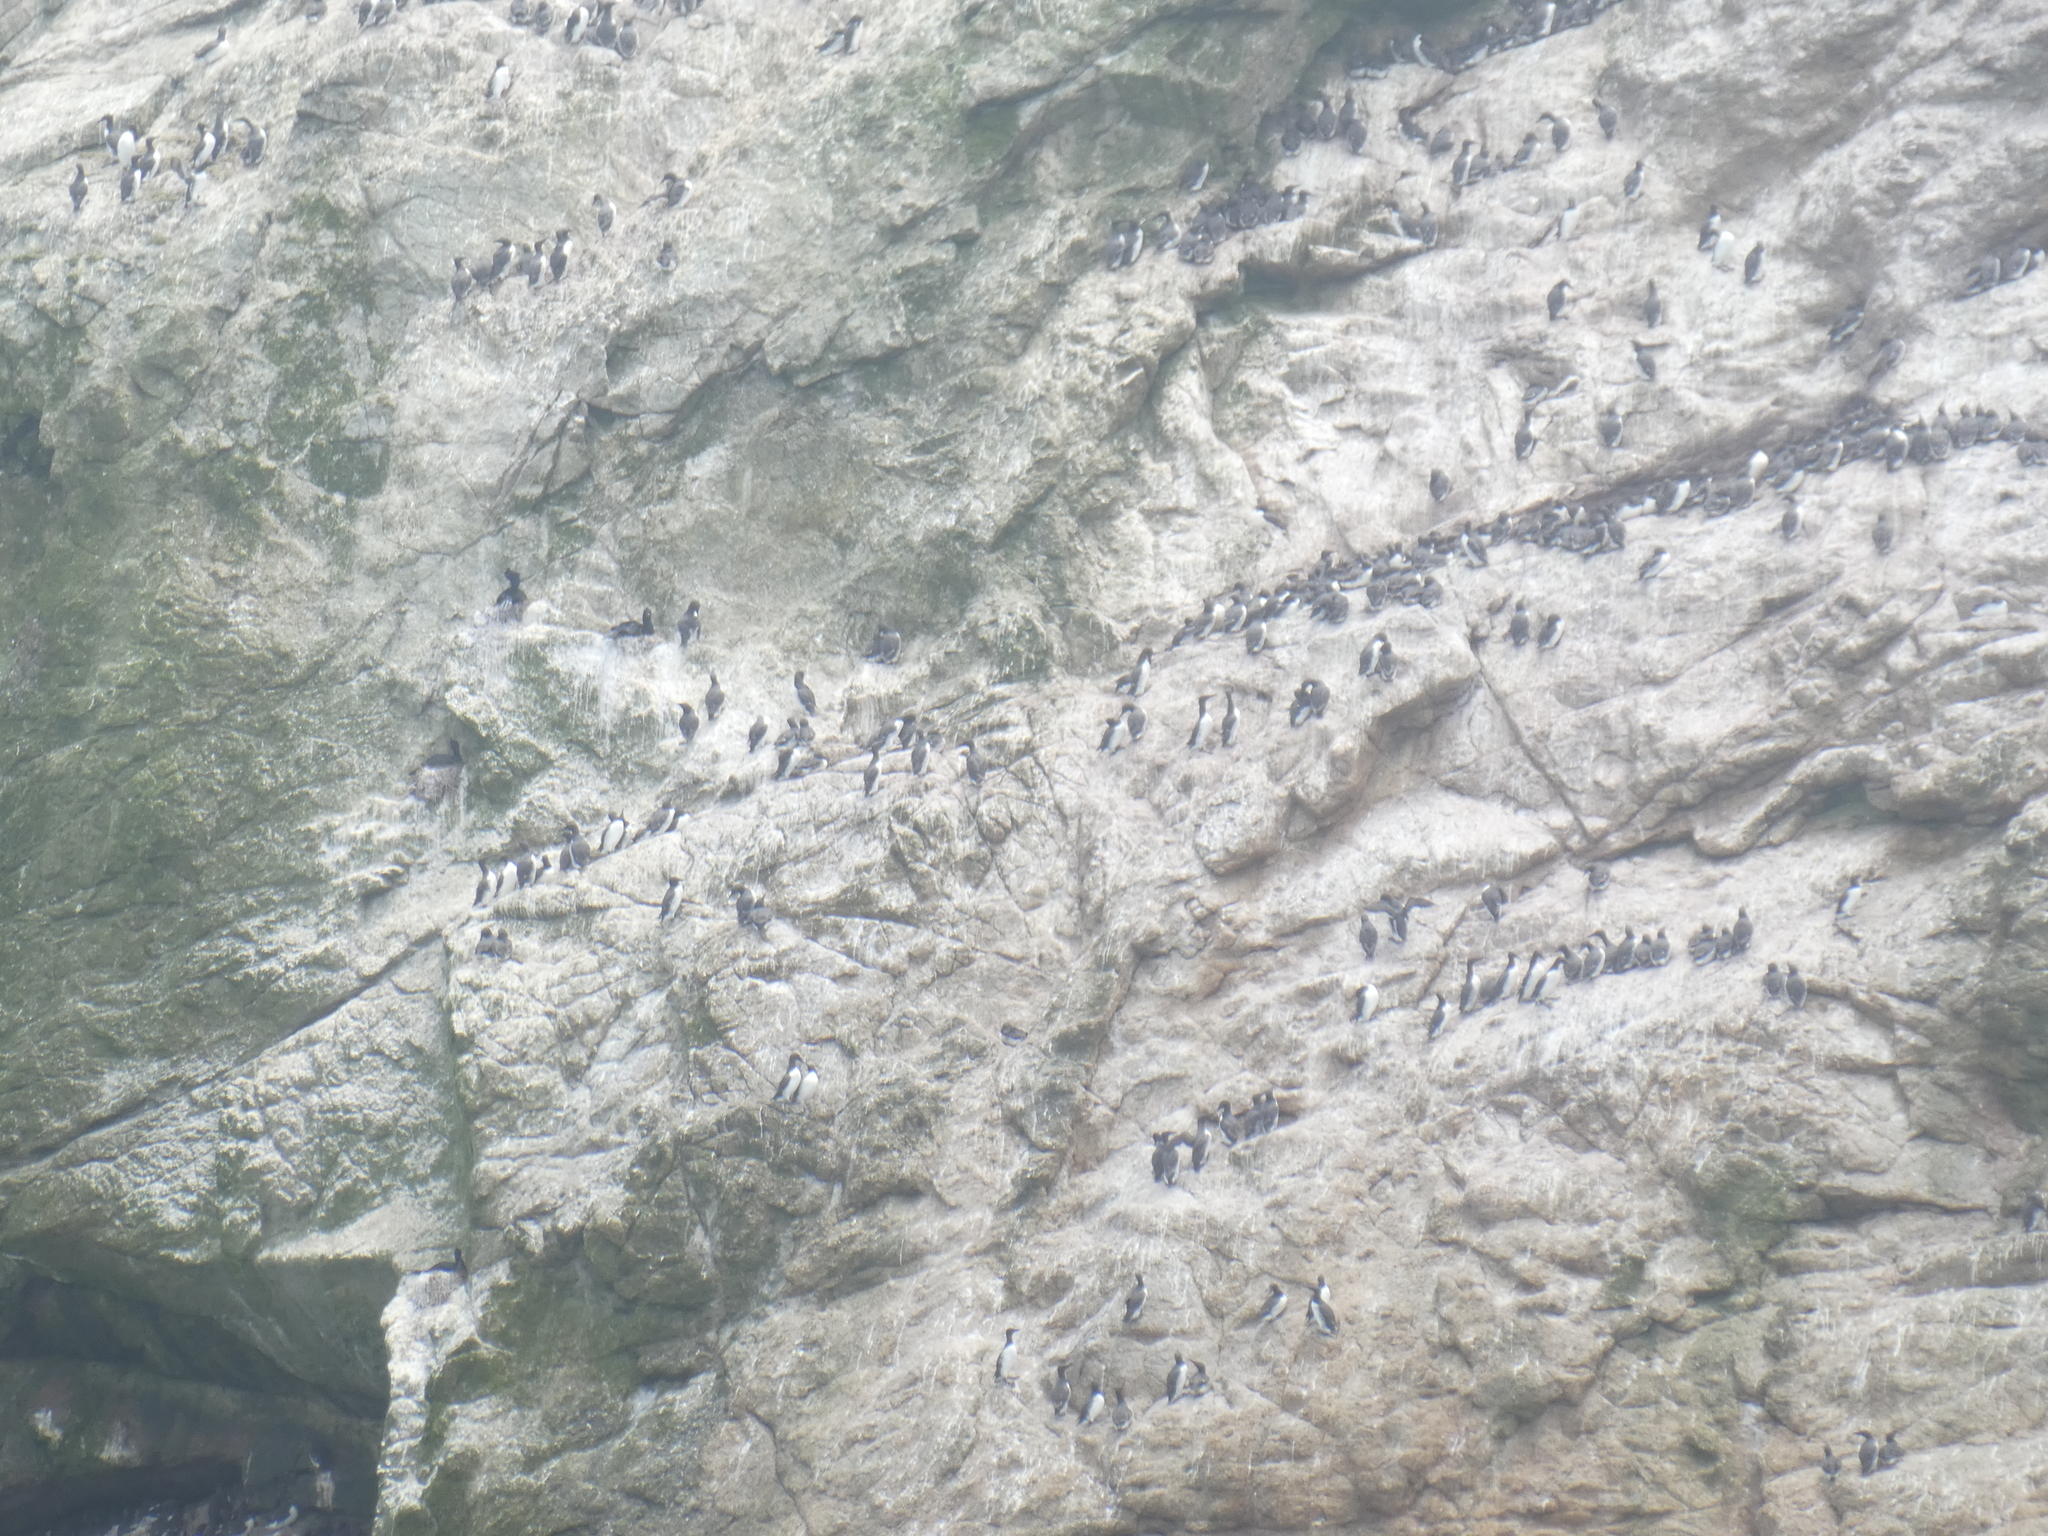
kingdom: Animalia
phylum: Chordata
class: Aves
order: Charadriiformes
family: Alcidae
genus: Uria
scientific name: Uria aalge
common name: Common murre
